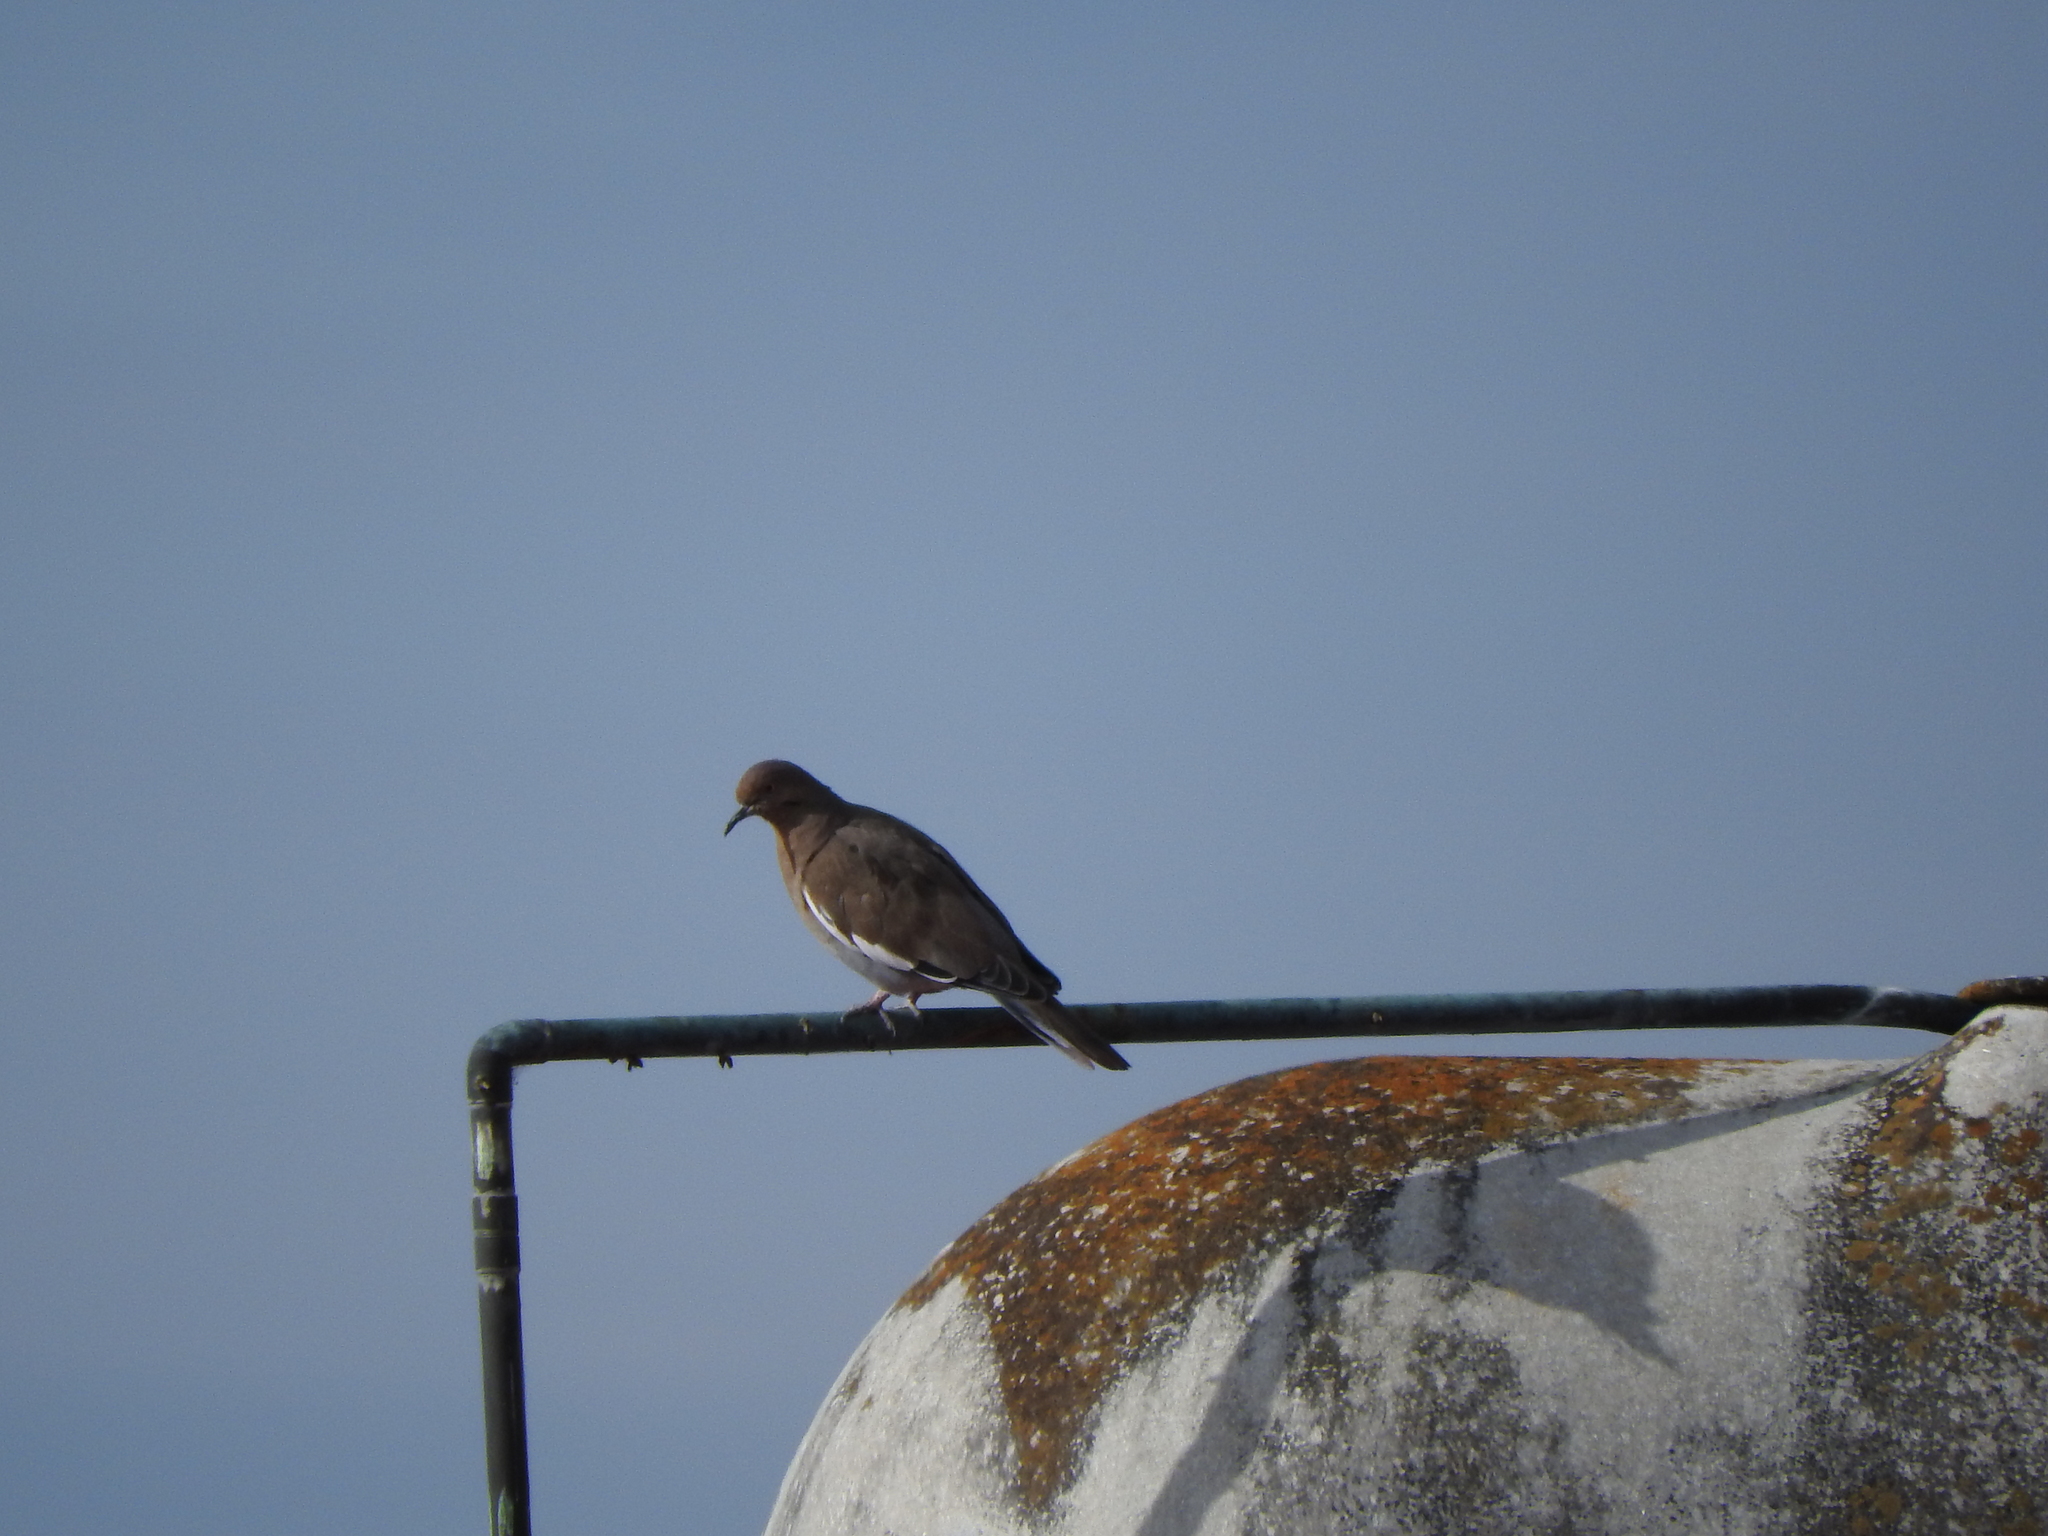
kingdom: Animalia
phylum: Chordata
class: Aves
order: Columbiformes
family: Columbidae
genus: Zenaida
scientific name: Zenaida asiatica
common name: White-winged dove
